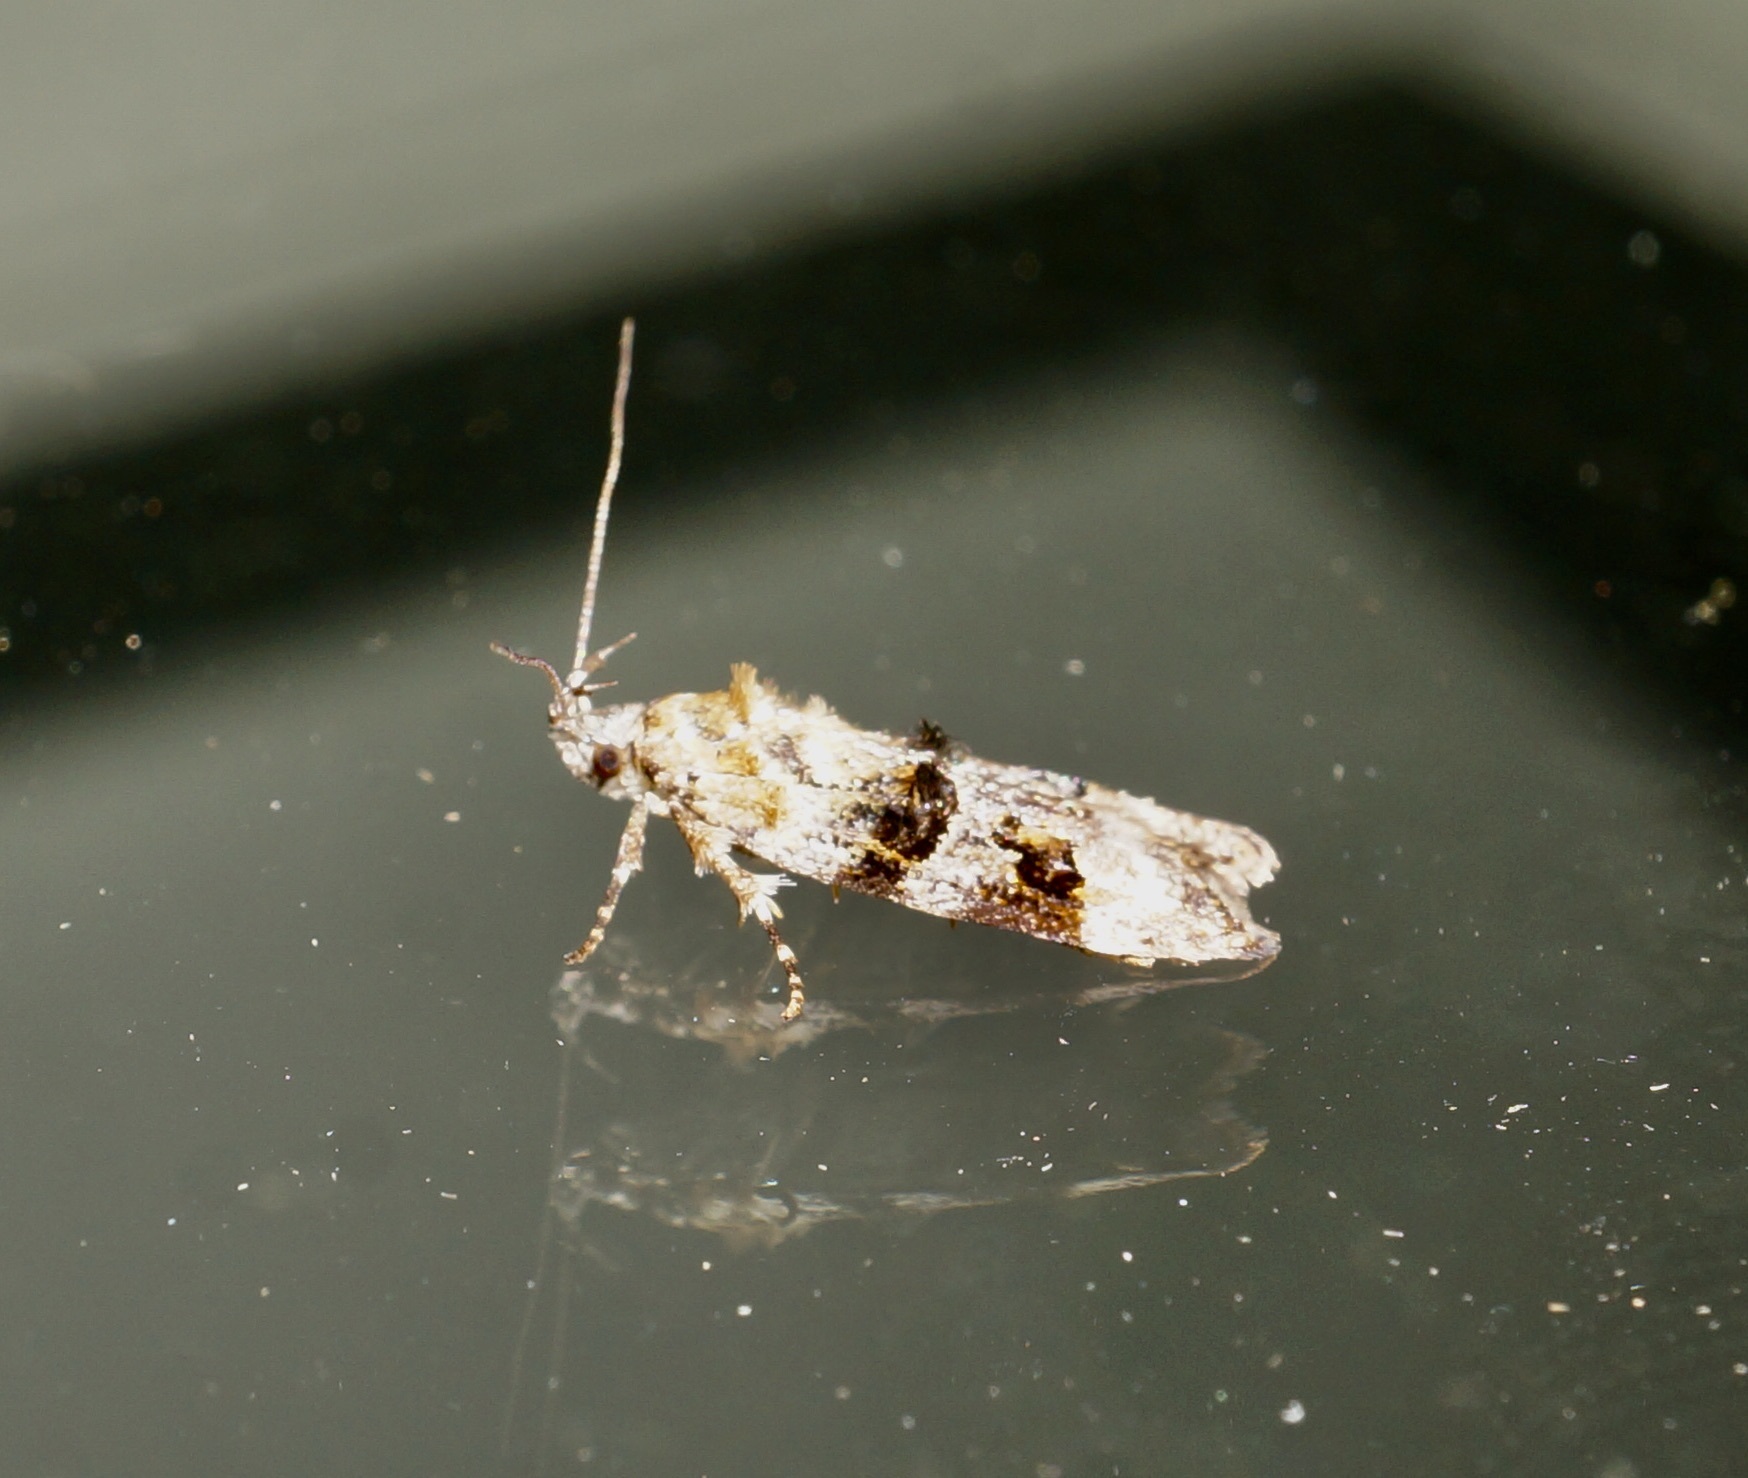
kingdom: Animalia
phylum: Arthropoda
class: Insecta
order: Lepidoptera
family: Oecophoridae
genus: Izatha
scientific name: Izatha metadelta
